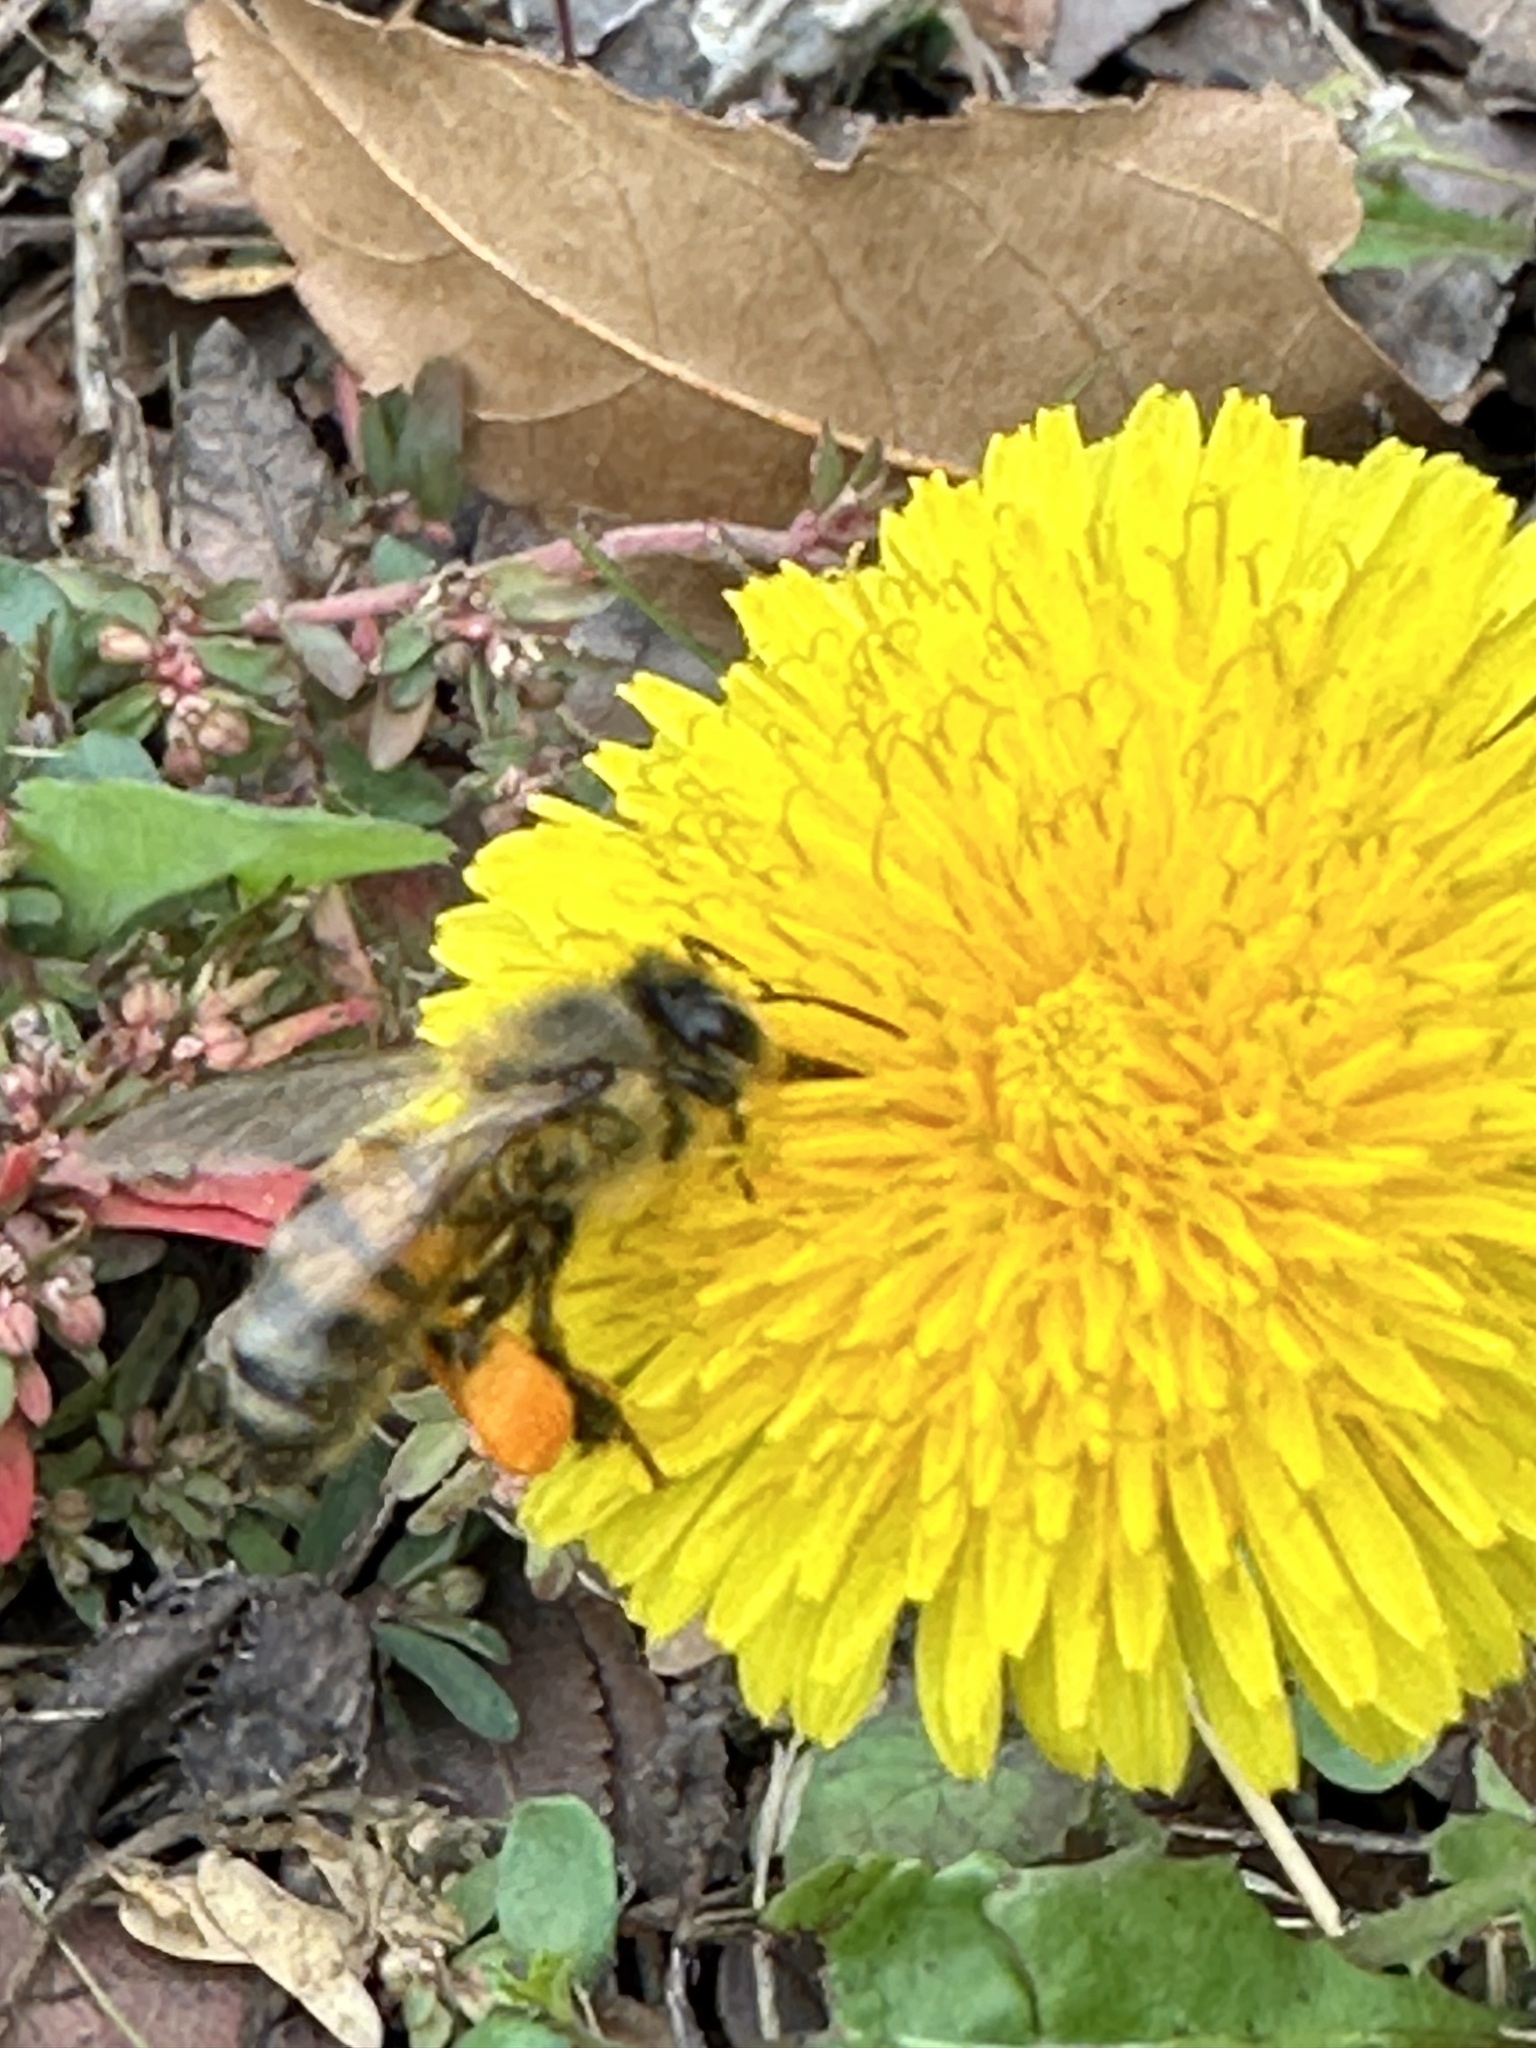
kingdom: Animalia
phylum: Arthropoda
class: Insecta
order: Hymenoptera
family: Apidae
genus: Apis
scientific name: Apis mellifera
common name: Honey bee
